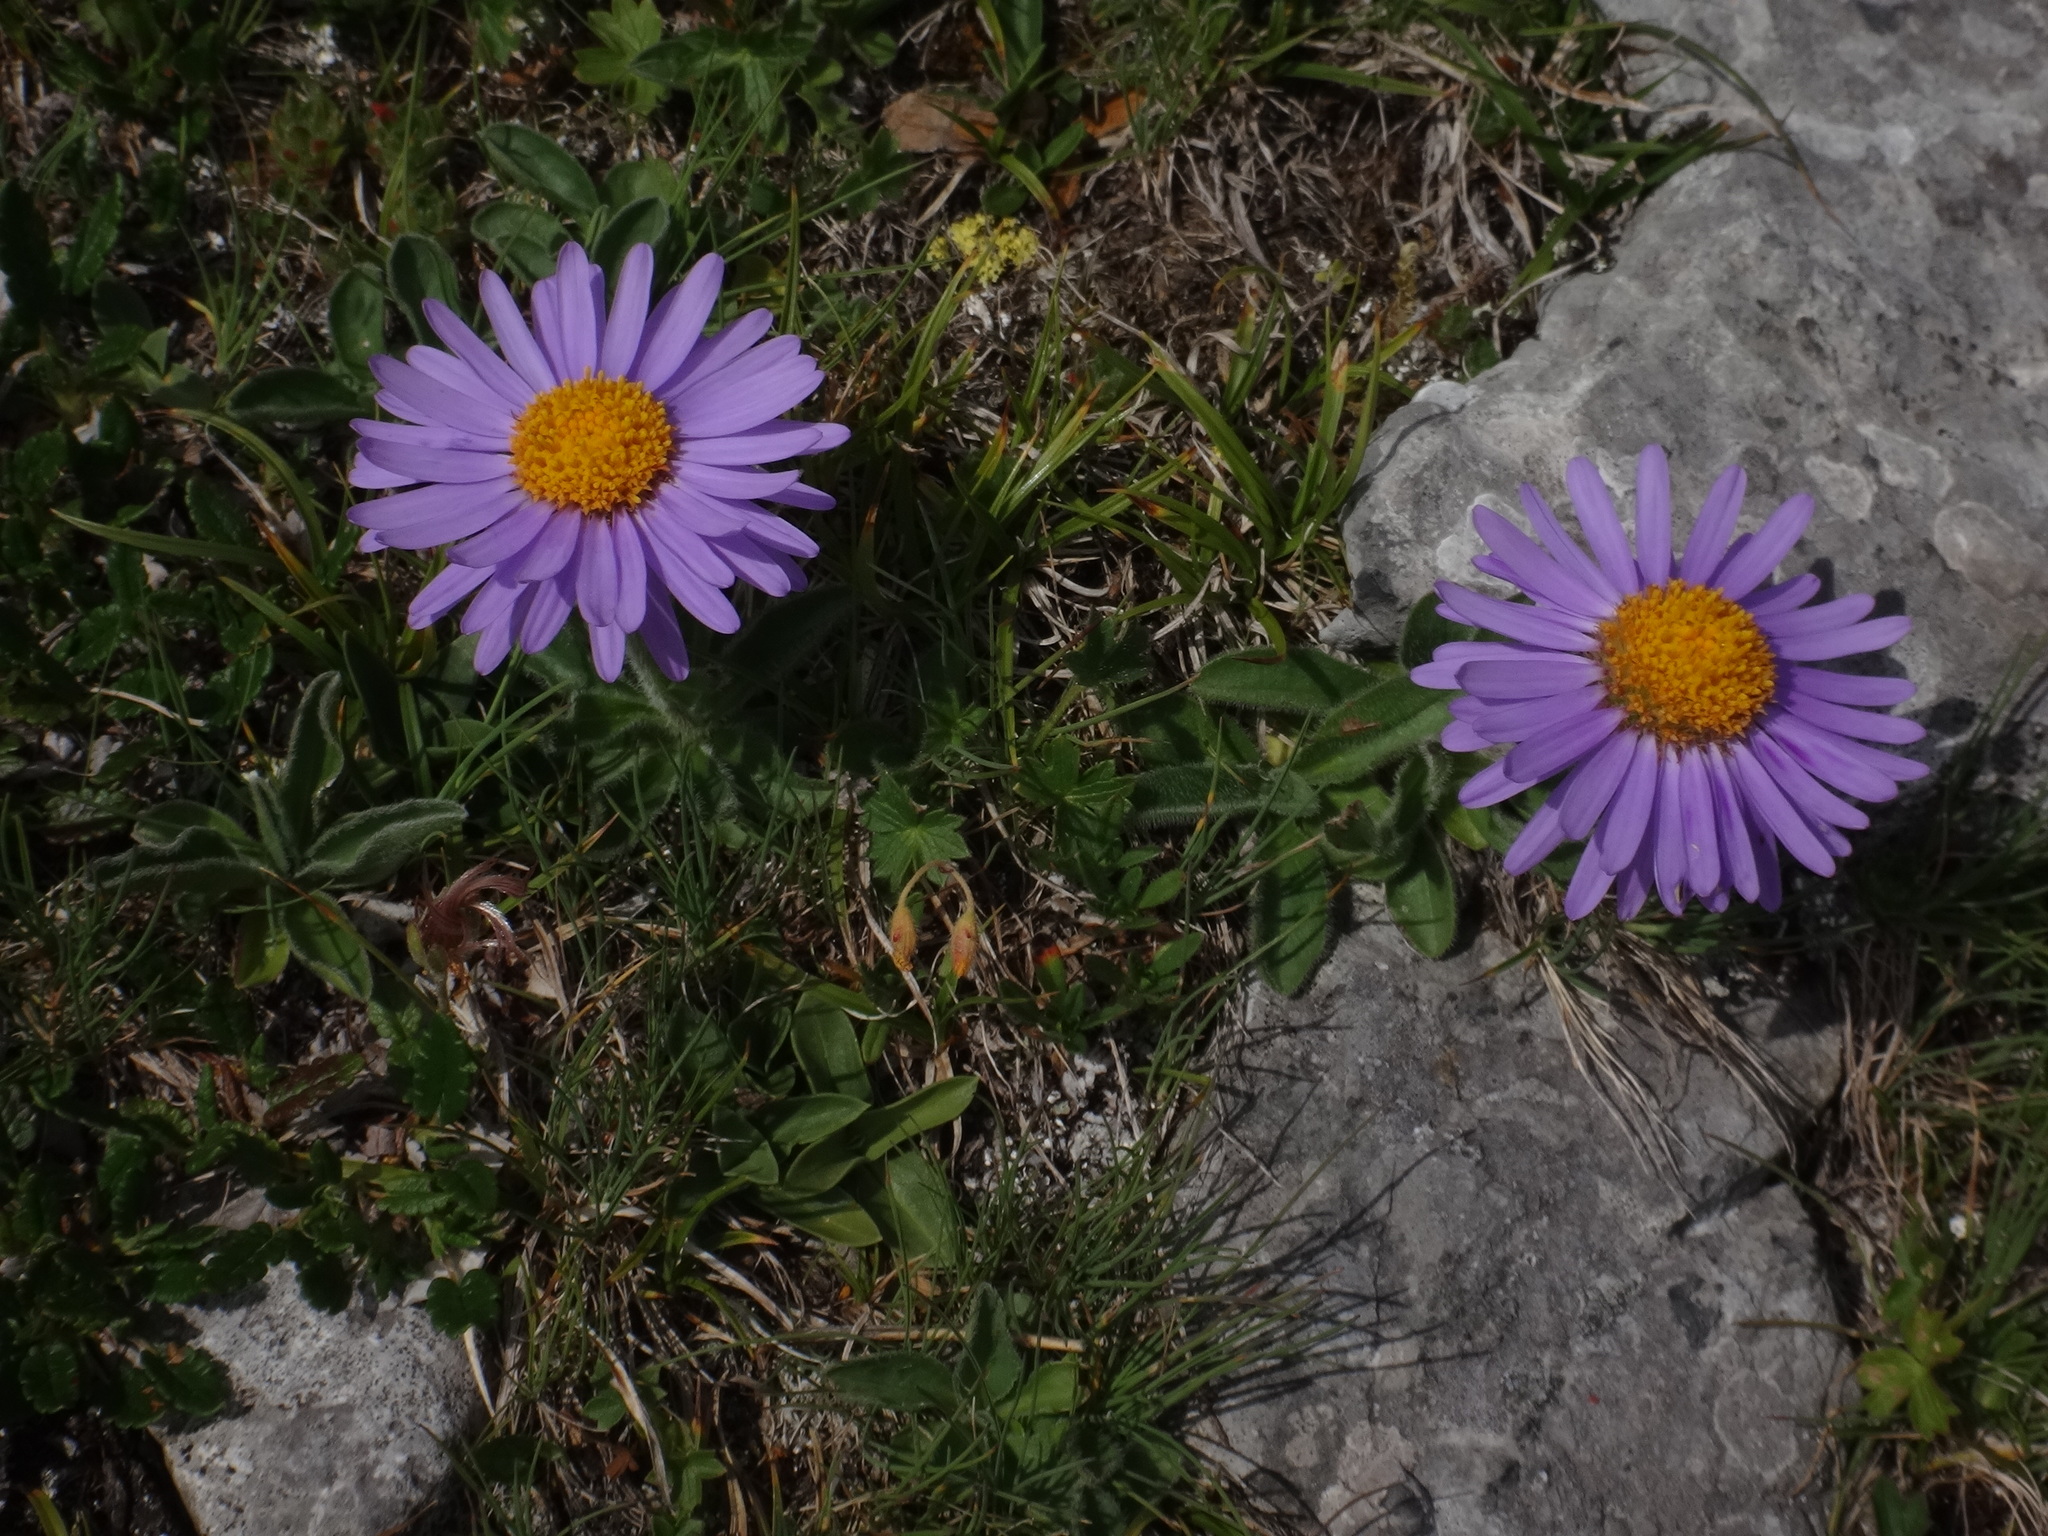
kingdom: Plantae
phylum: Tracheophyta
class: Magnoliopsida
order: Asterales
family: Asteraceae
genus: Aster
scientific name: Aster alpinus
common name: Alpine aster
